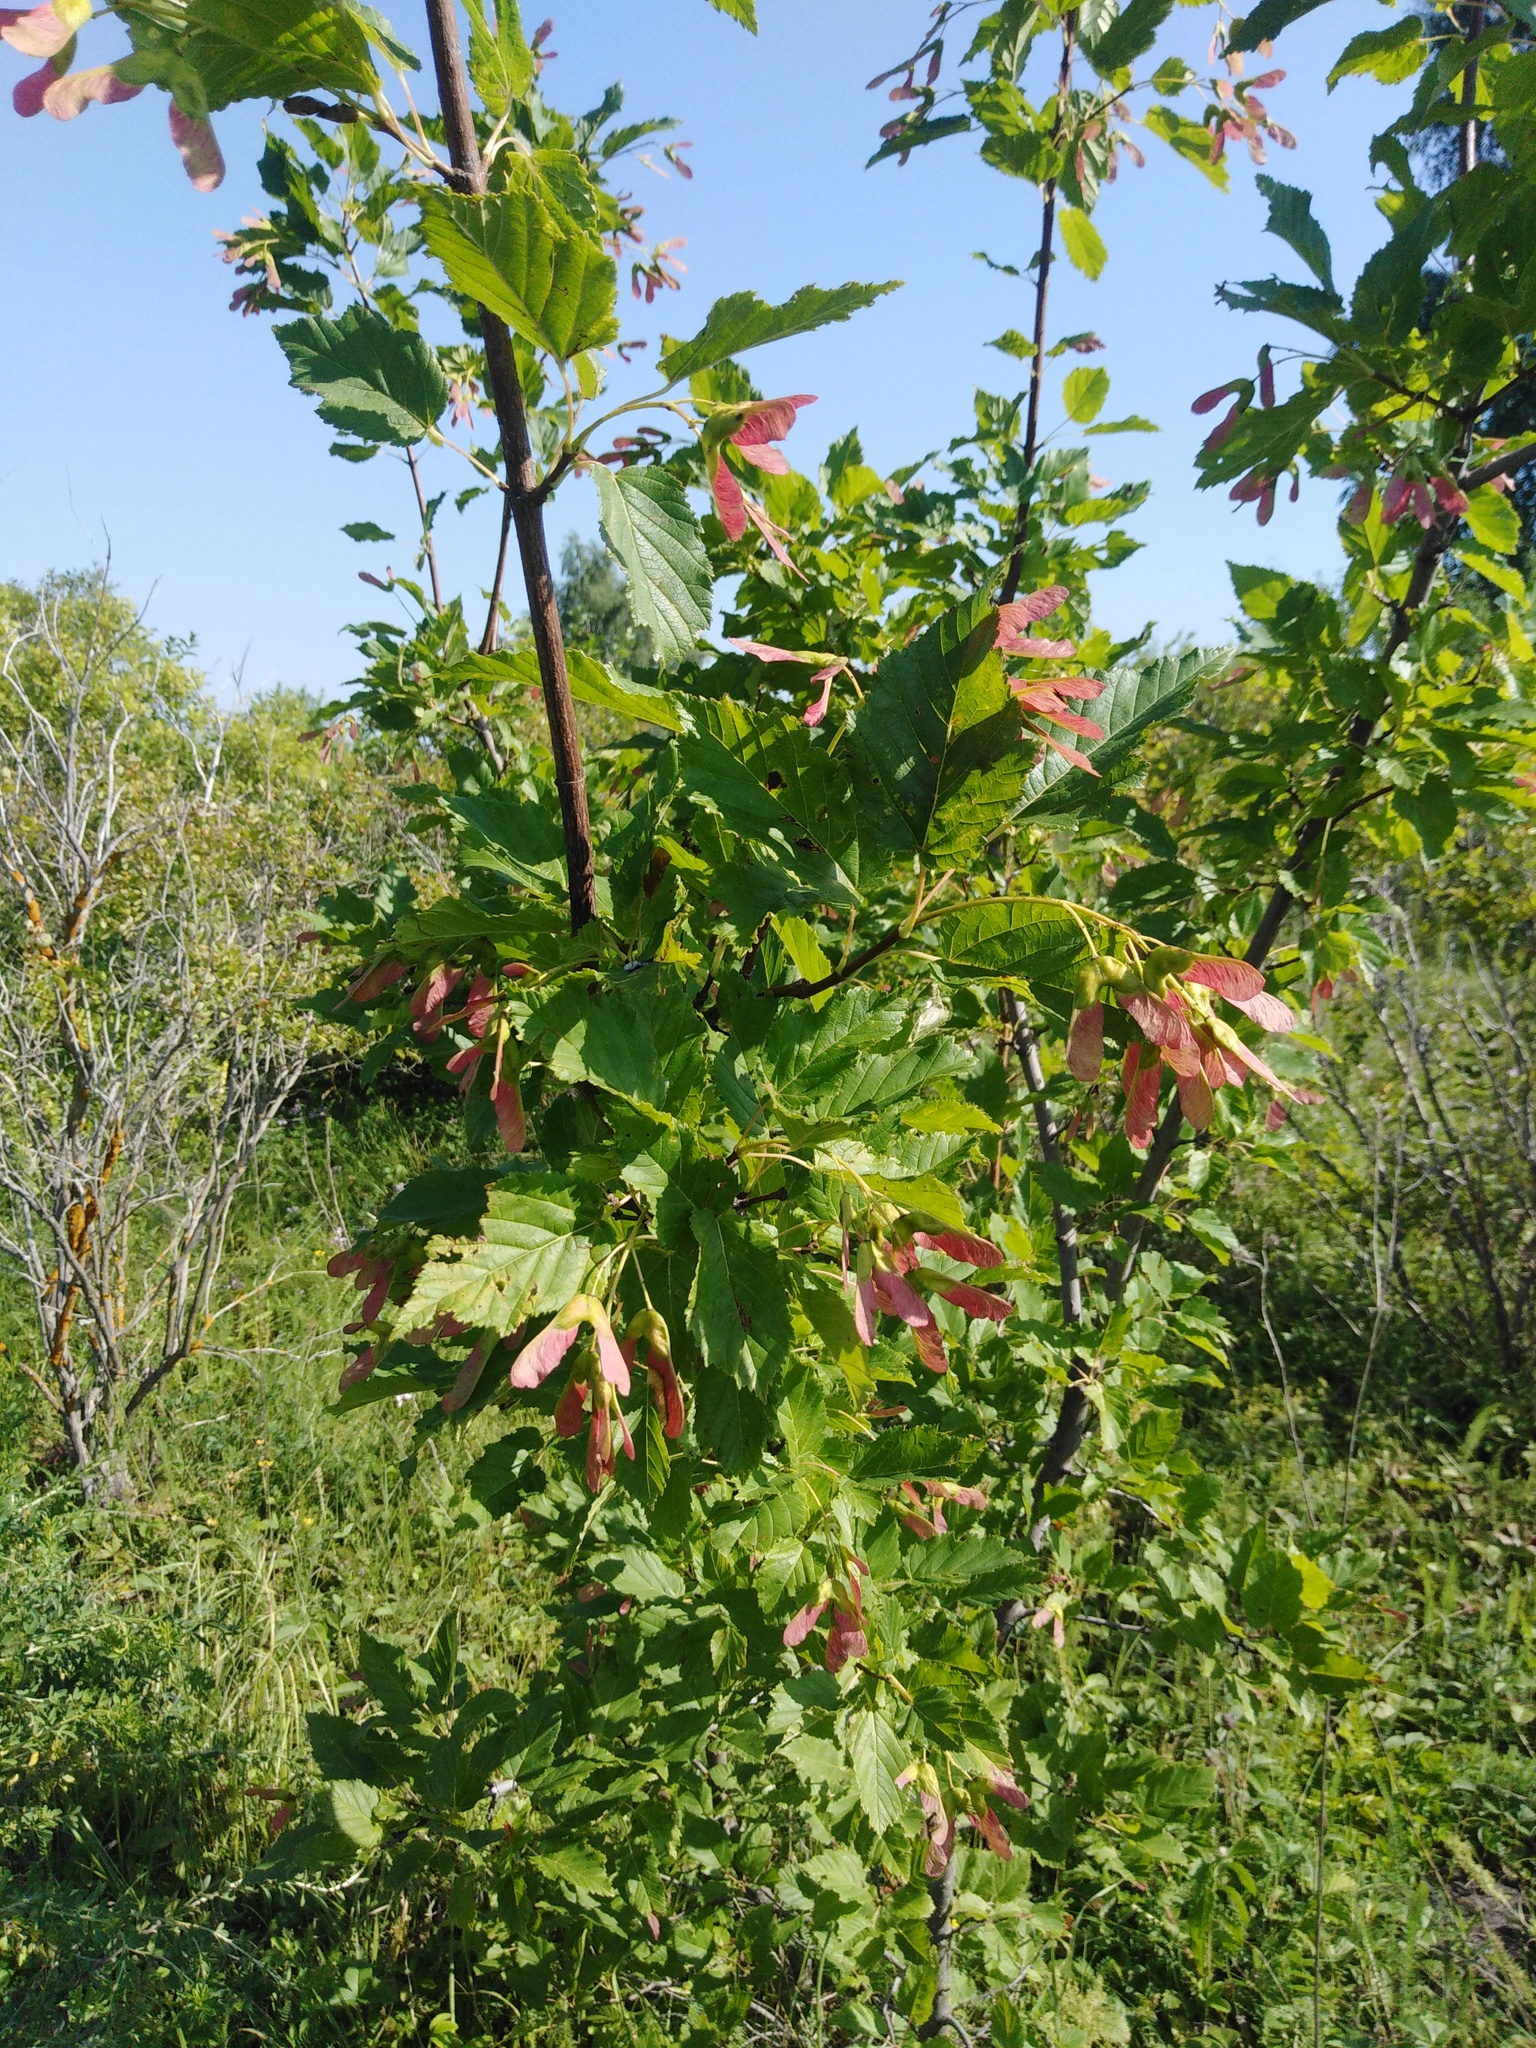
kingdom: Plantae
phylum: Tracheophyta
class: Magnoliopsida
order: Sapindales
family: Sapindaceae
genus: Acer
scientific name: Acer tataricum
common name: Tartar maple
